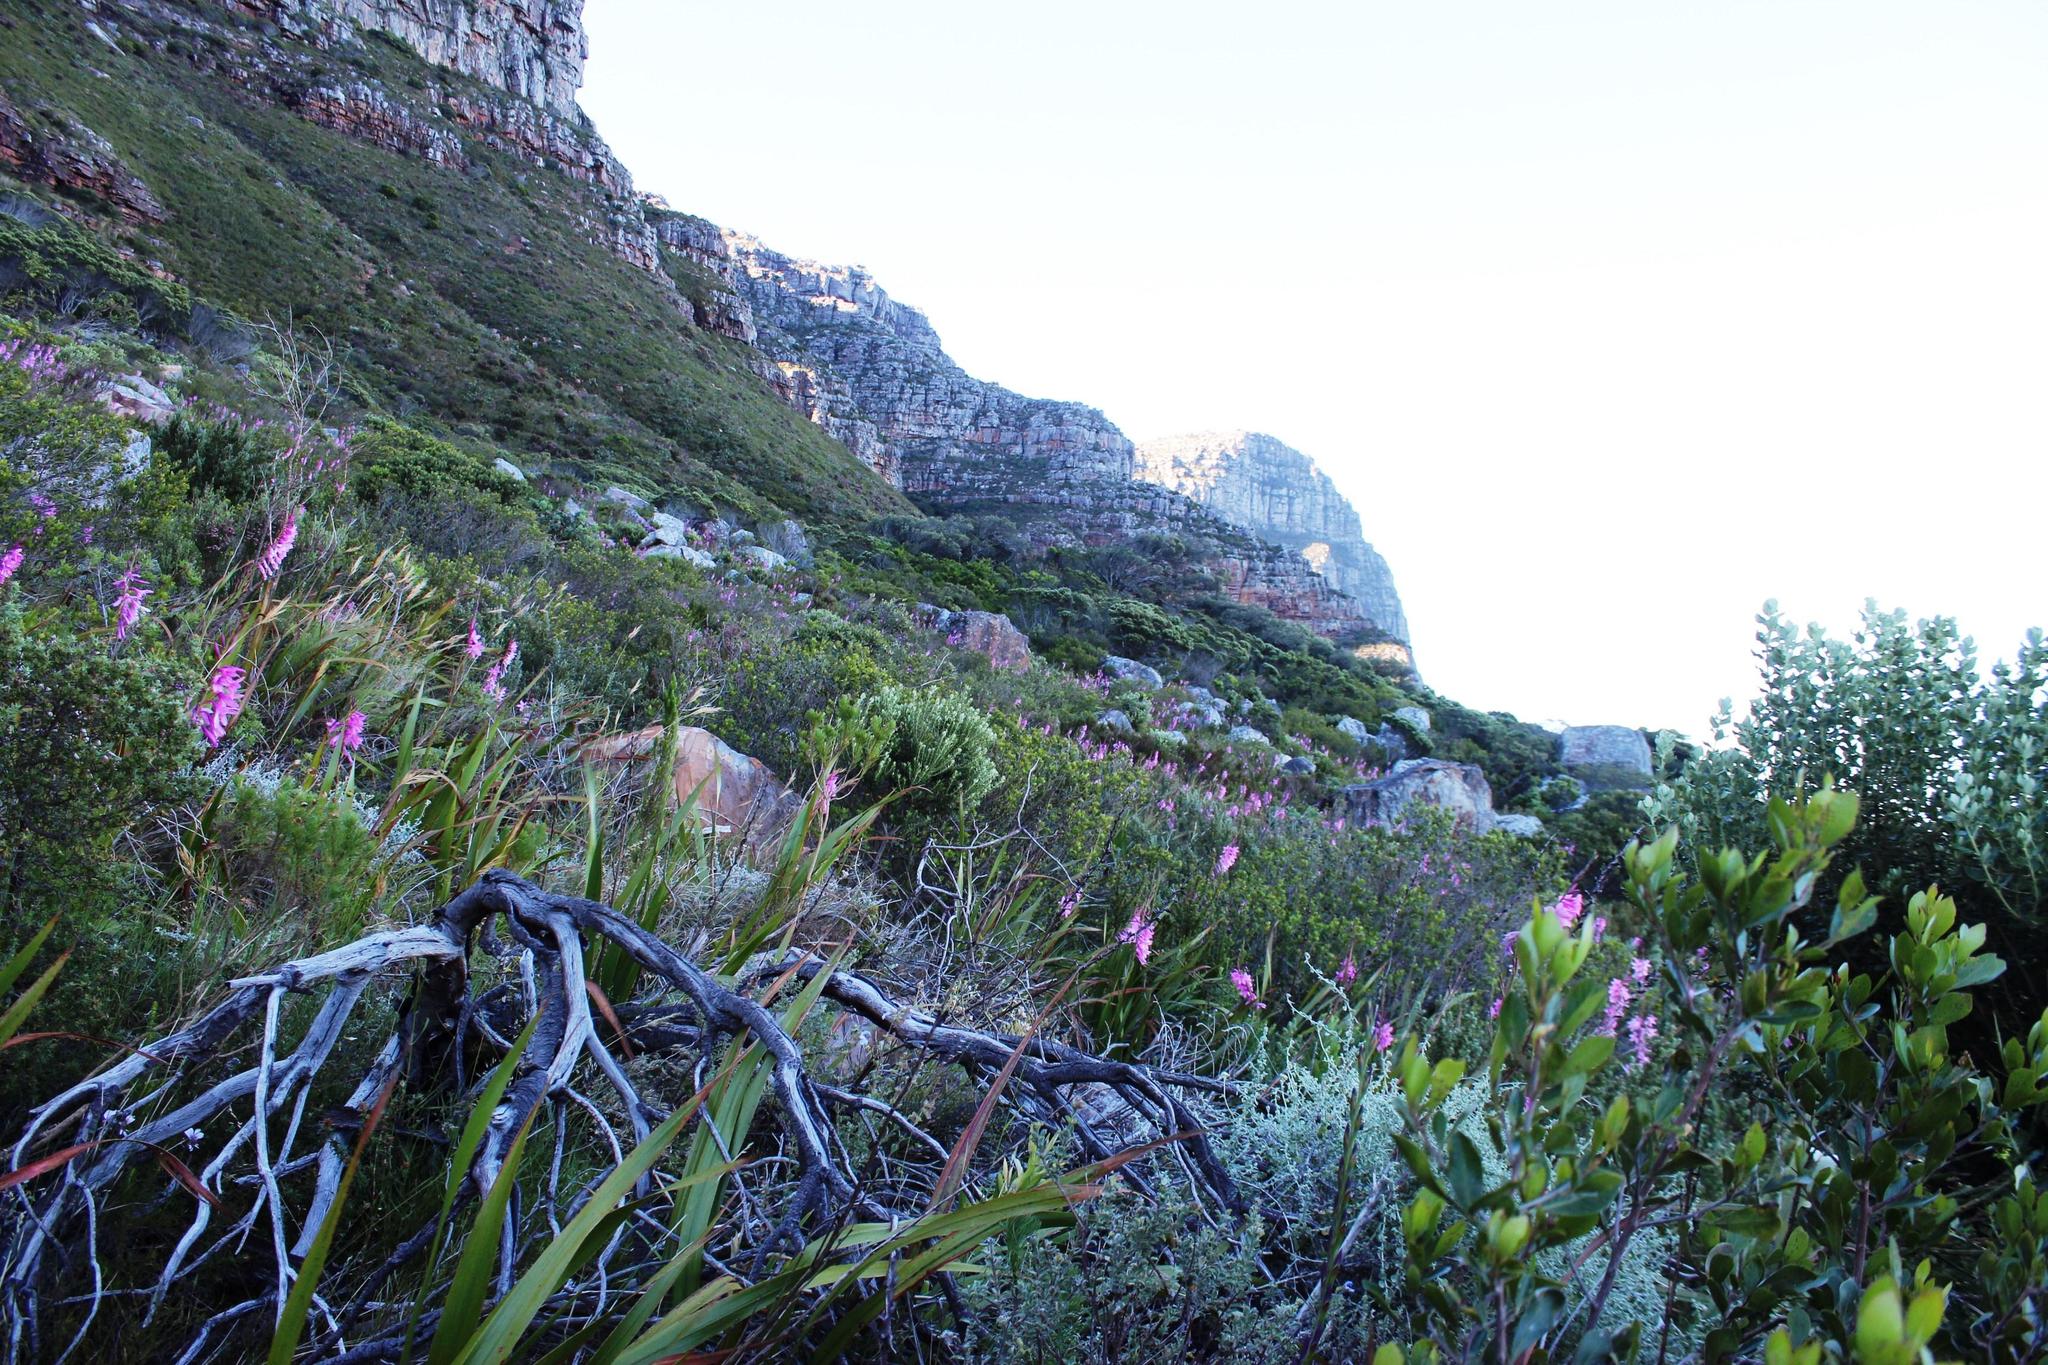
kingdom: Plantae
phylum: Tracheophyta
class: Liliopsida
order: Asparagales
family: Iridaceae
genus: Watsonia
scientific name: Watsonia borbonica
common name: Bugle-lily
